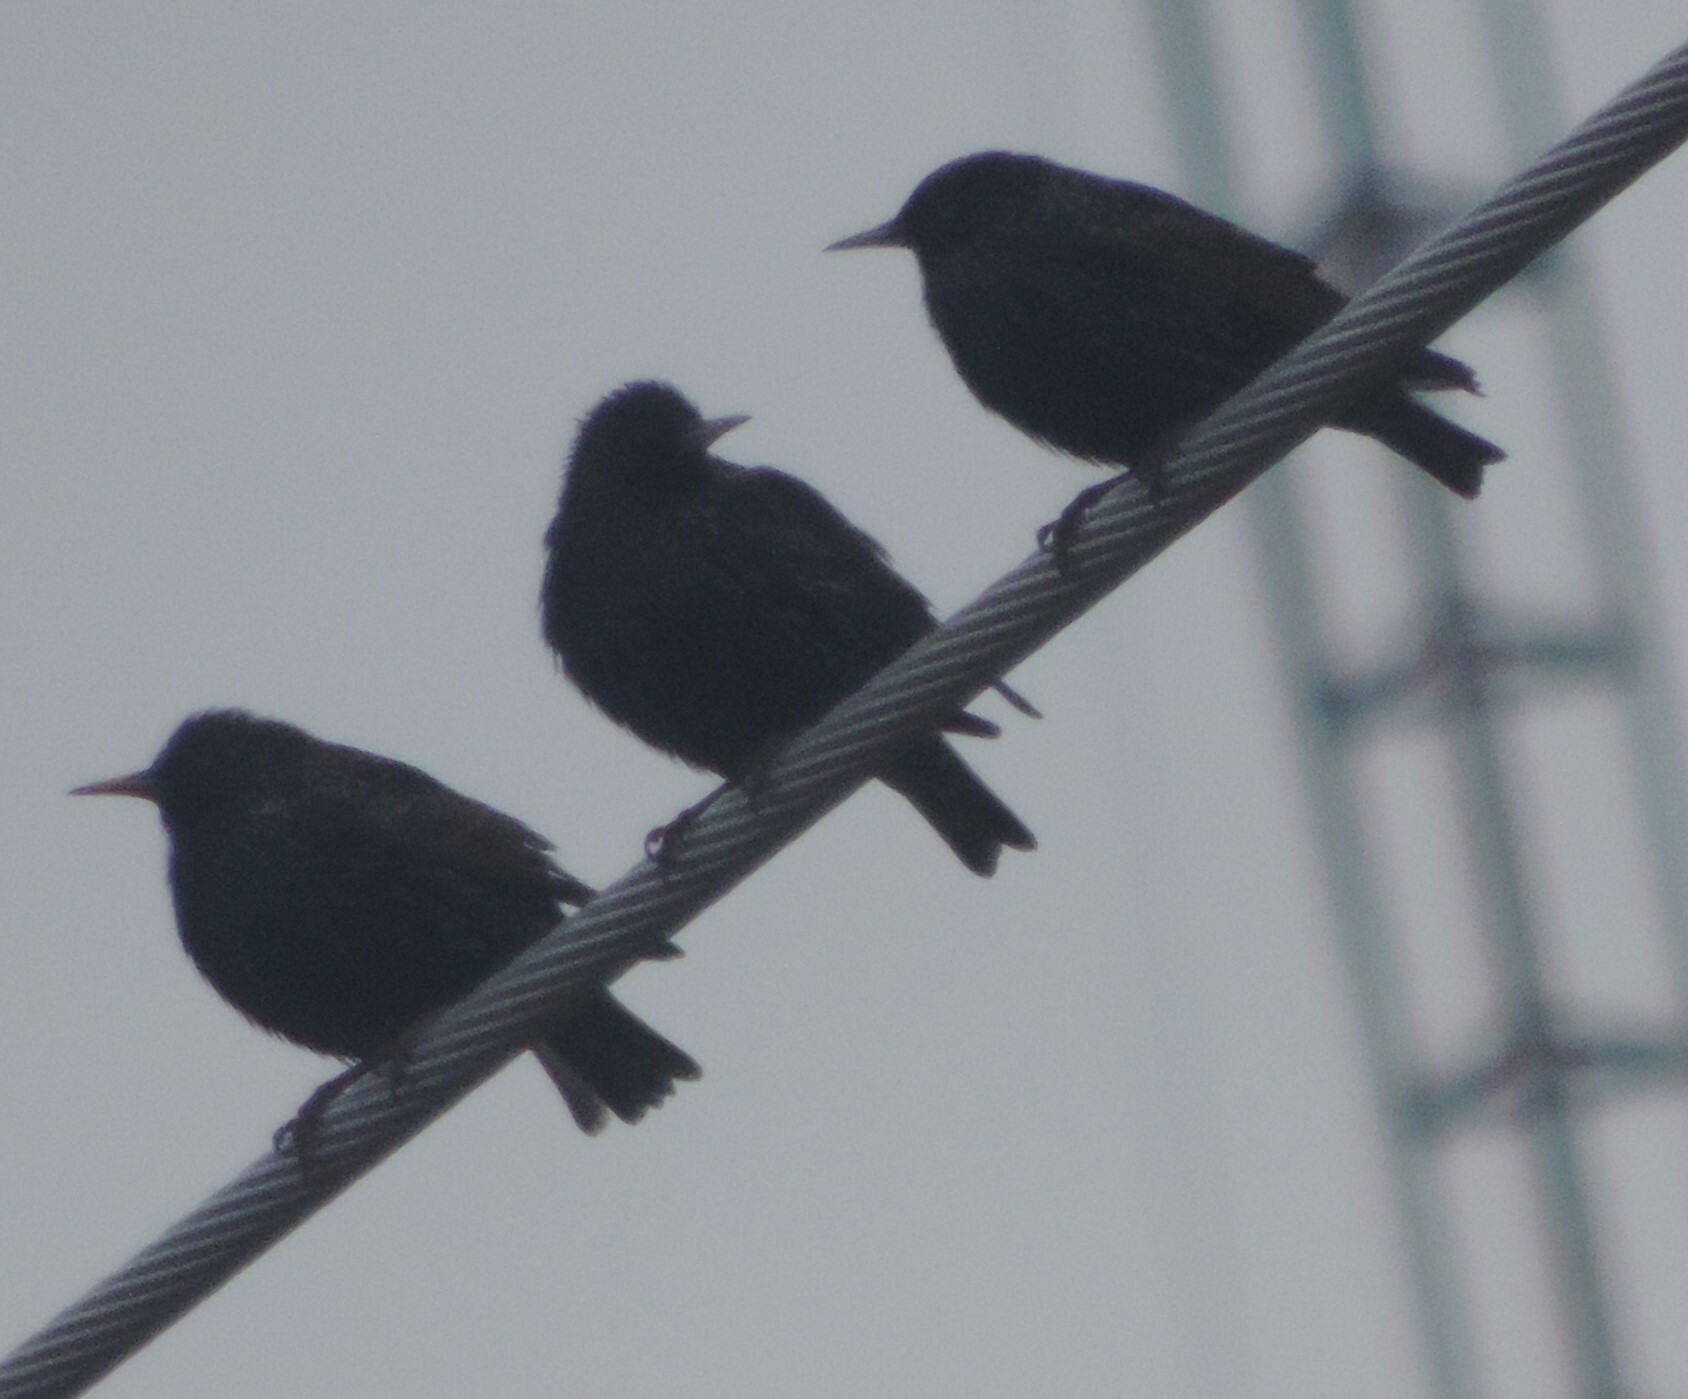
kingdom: Animalia
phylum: Chordata
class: Aves
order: Passeriformes
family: Sturnidae
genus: Sturnus
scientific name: Sturnus vulgaris
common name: Common starling
